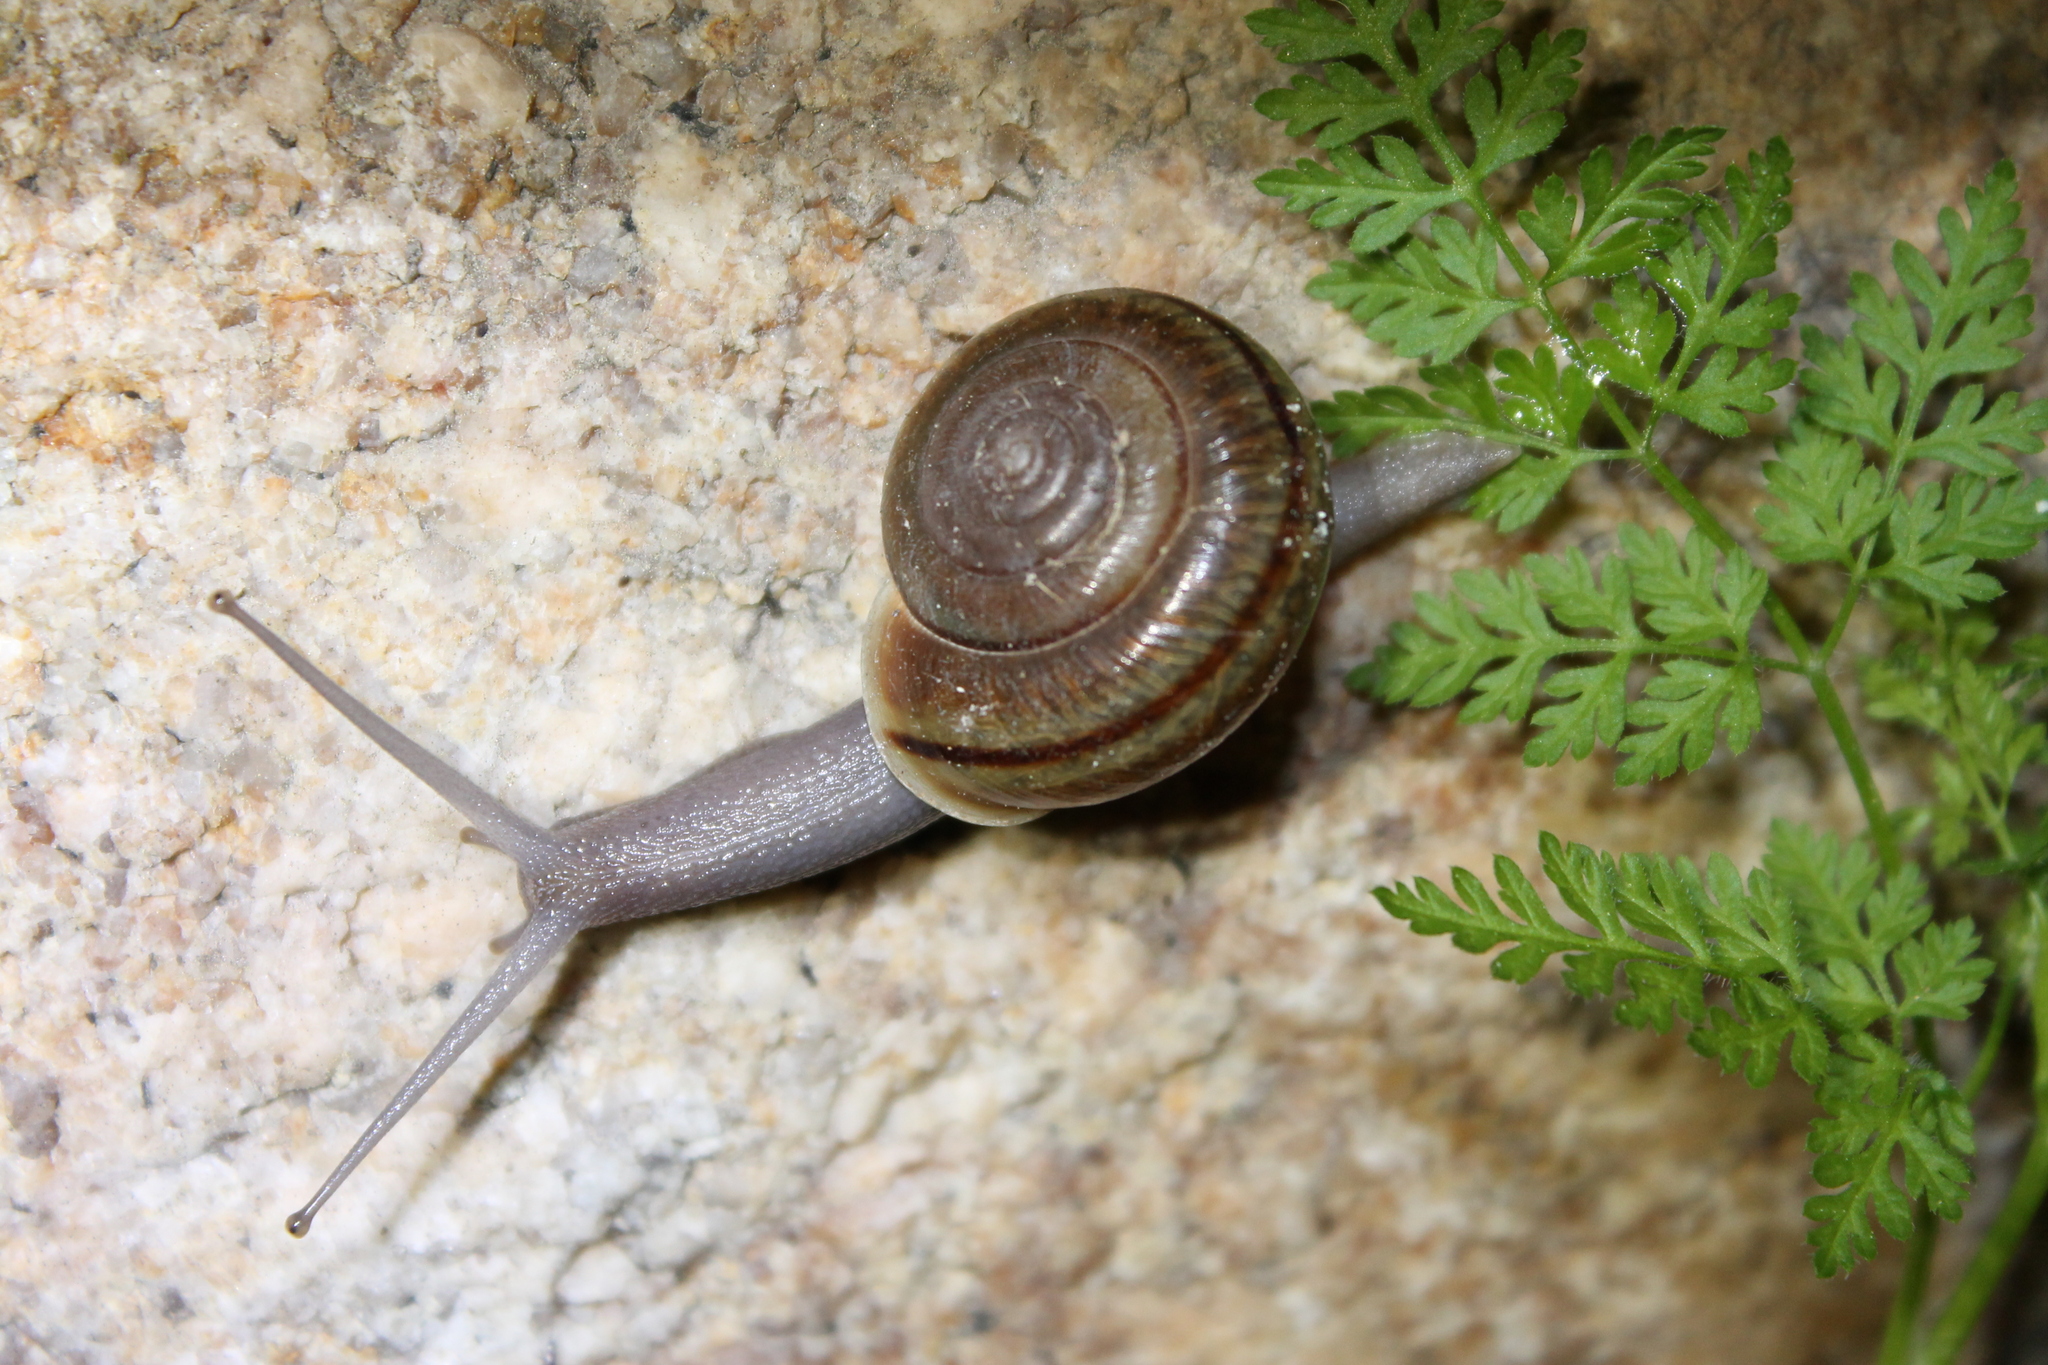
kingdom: Animalia
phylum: Mollusca
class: Gastropoda
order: Stylommatophora
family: Xanthonychidae
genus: Helminthoglypta
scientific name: Helminthoglypta benitoensis
